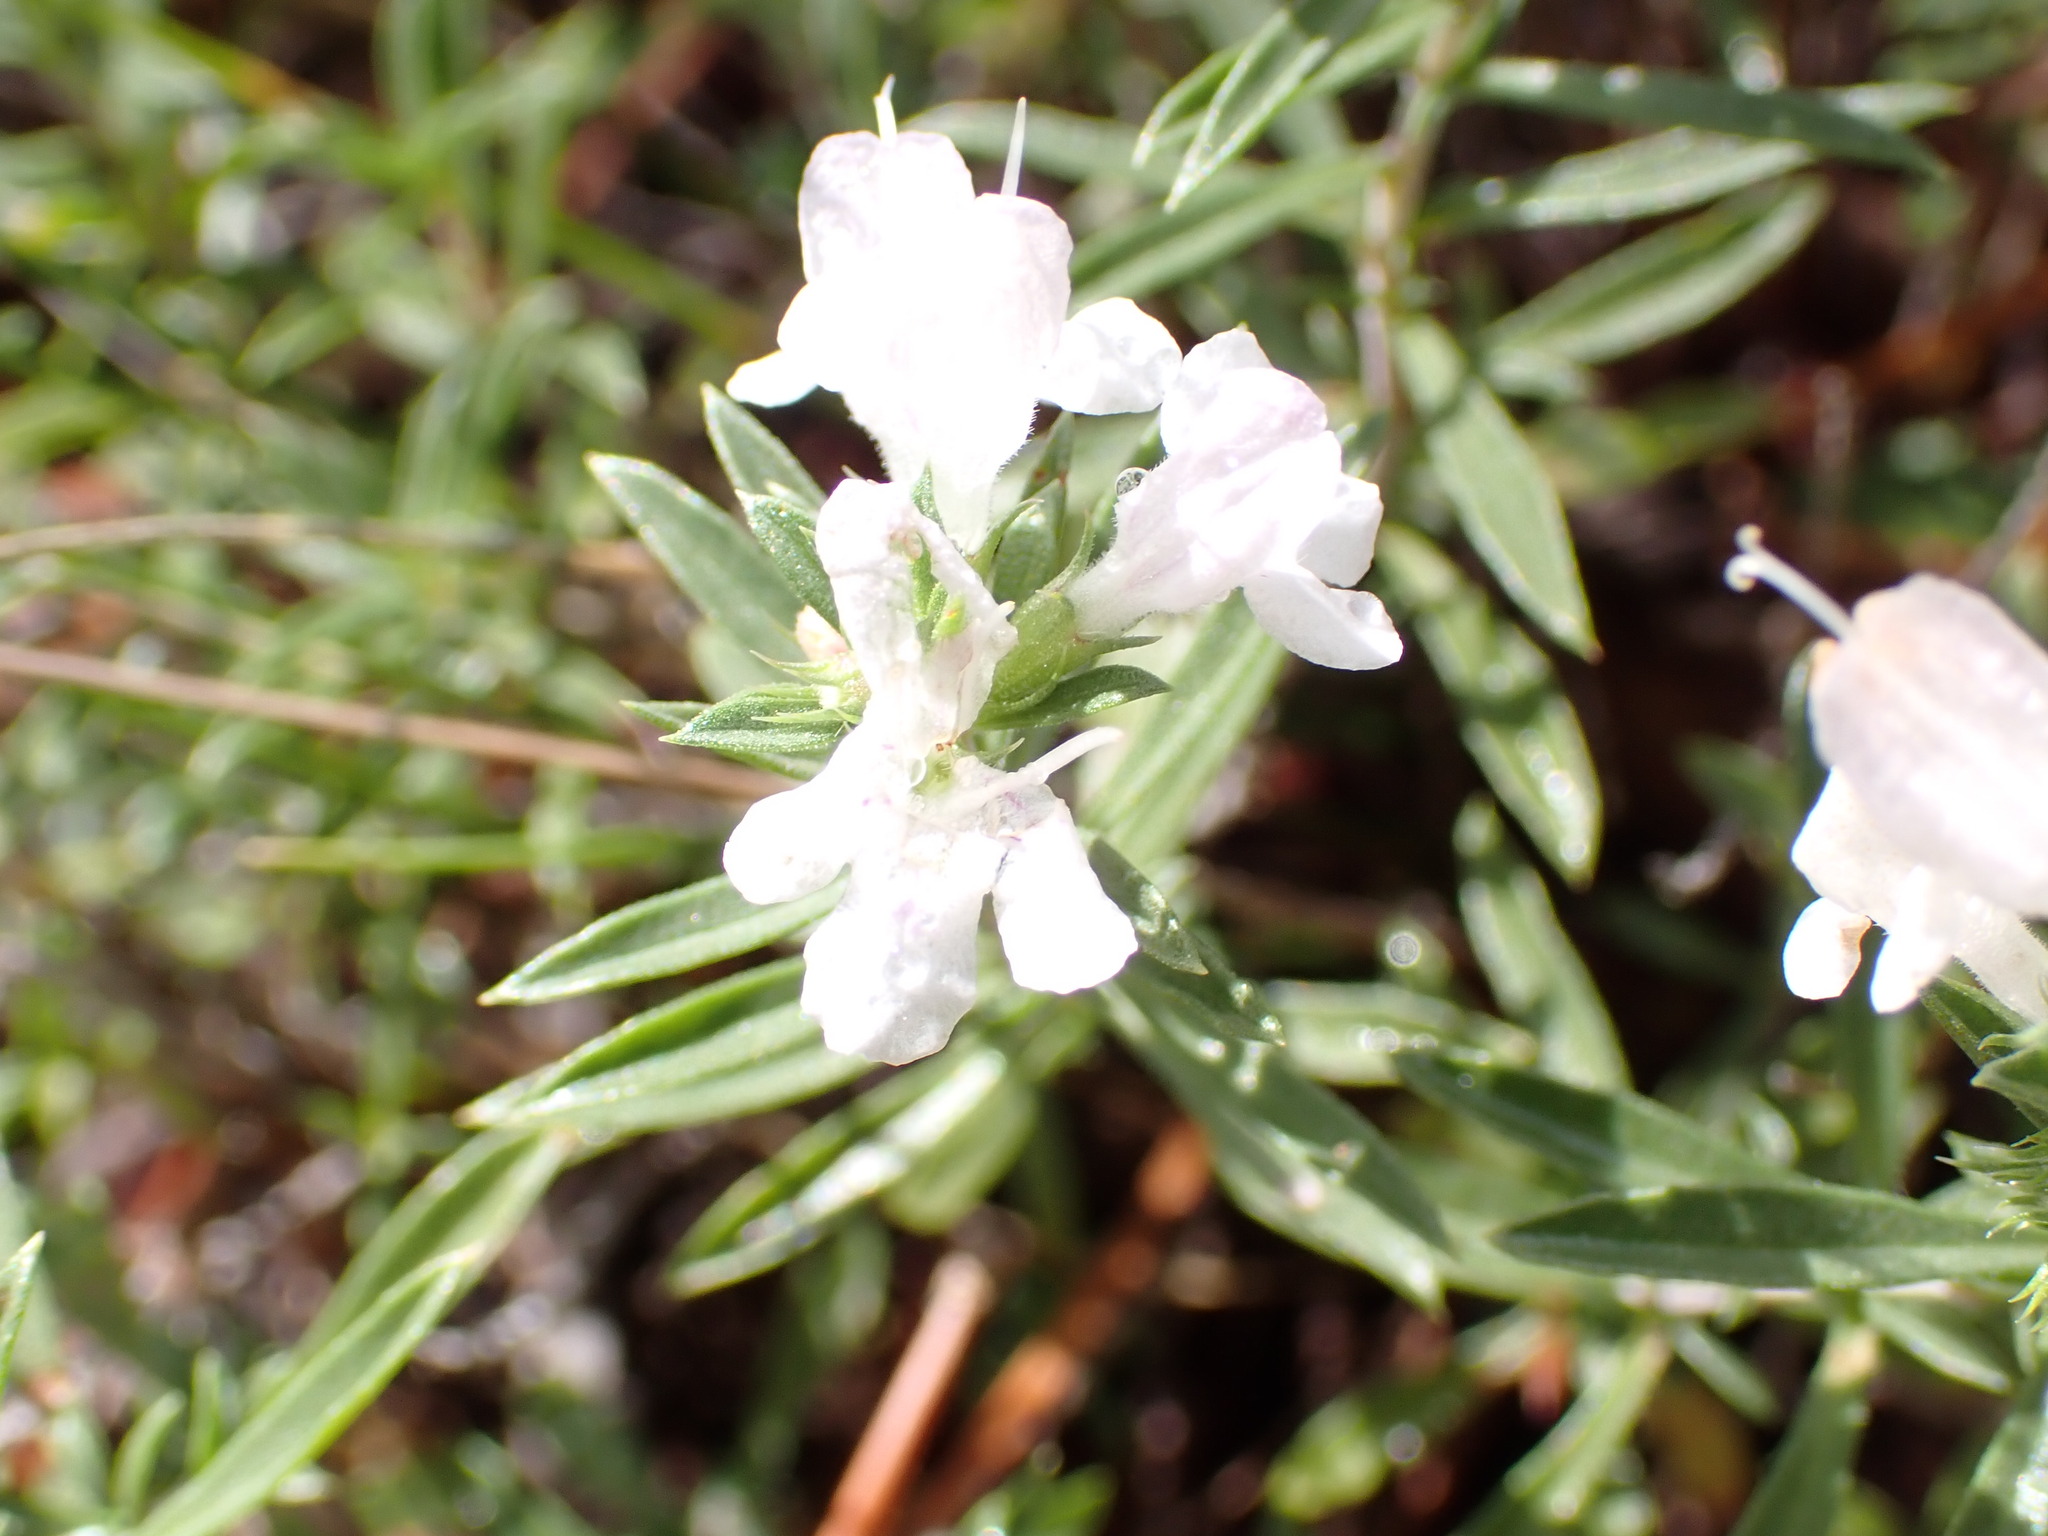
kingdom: Plantae
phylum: Tracheophyta
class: Magnoliopsida
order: Lamiales
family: Lamiaceae
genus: Satureja
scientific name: Satureja montana
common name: Winter savory
